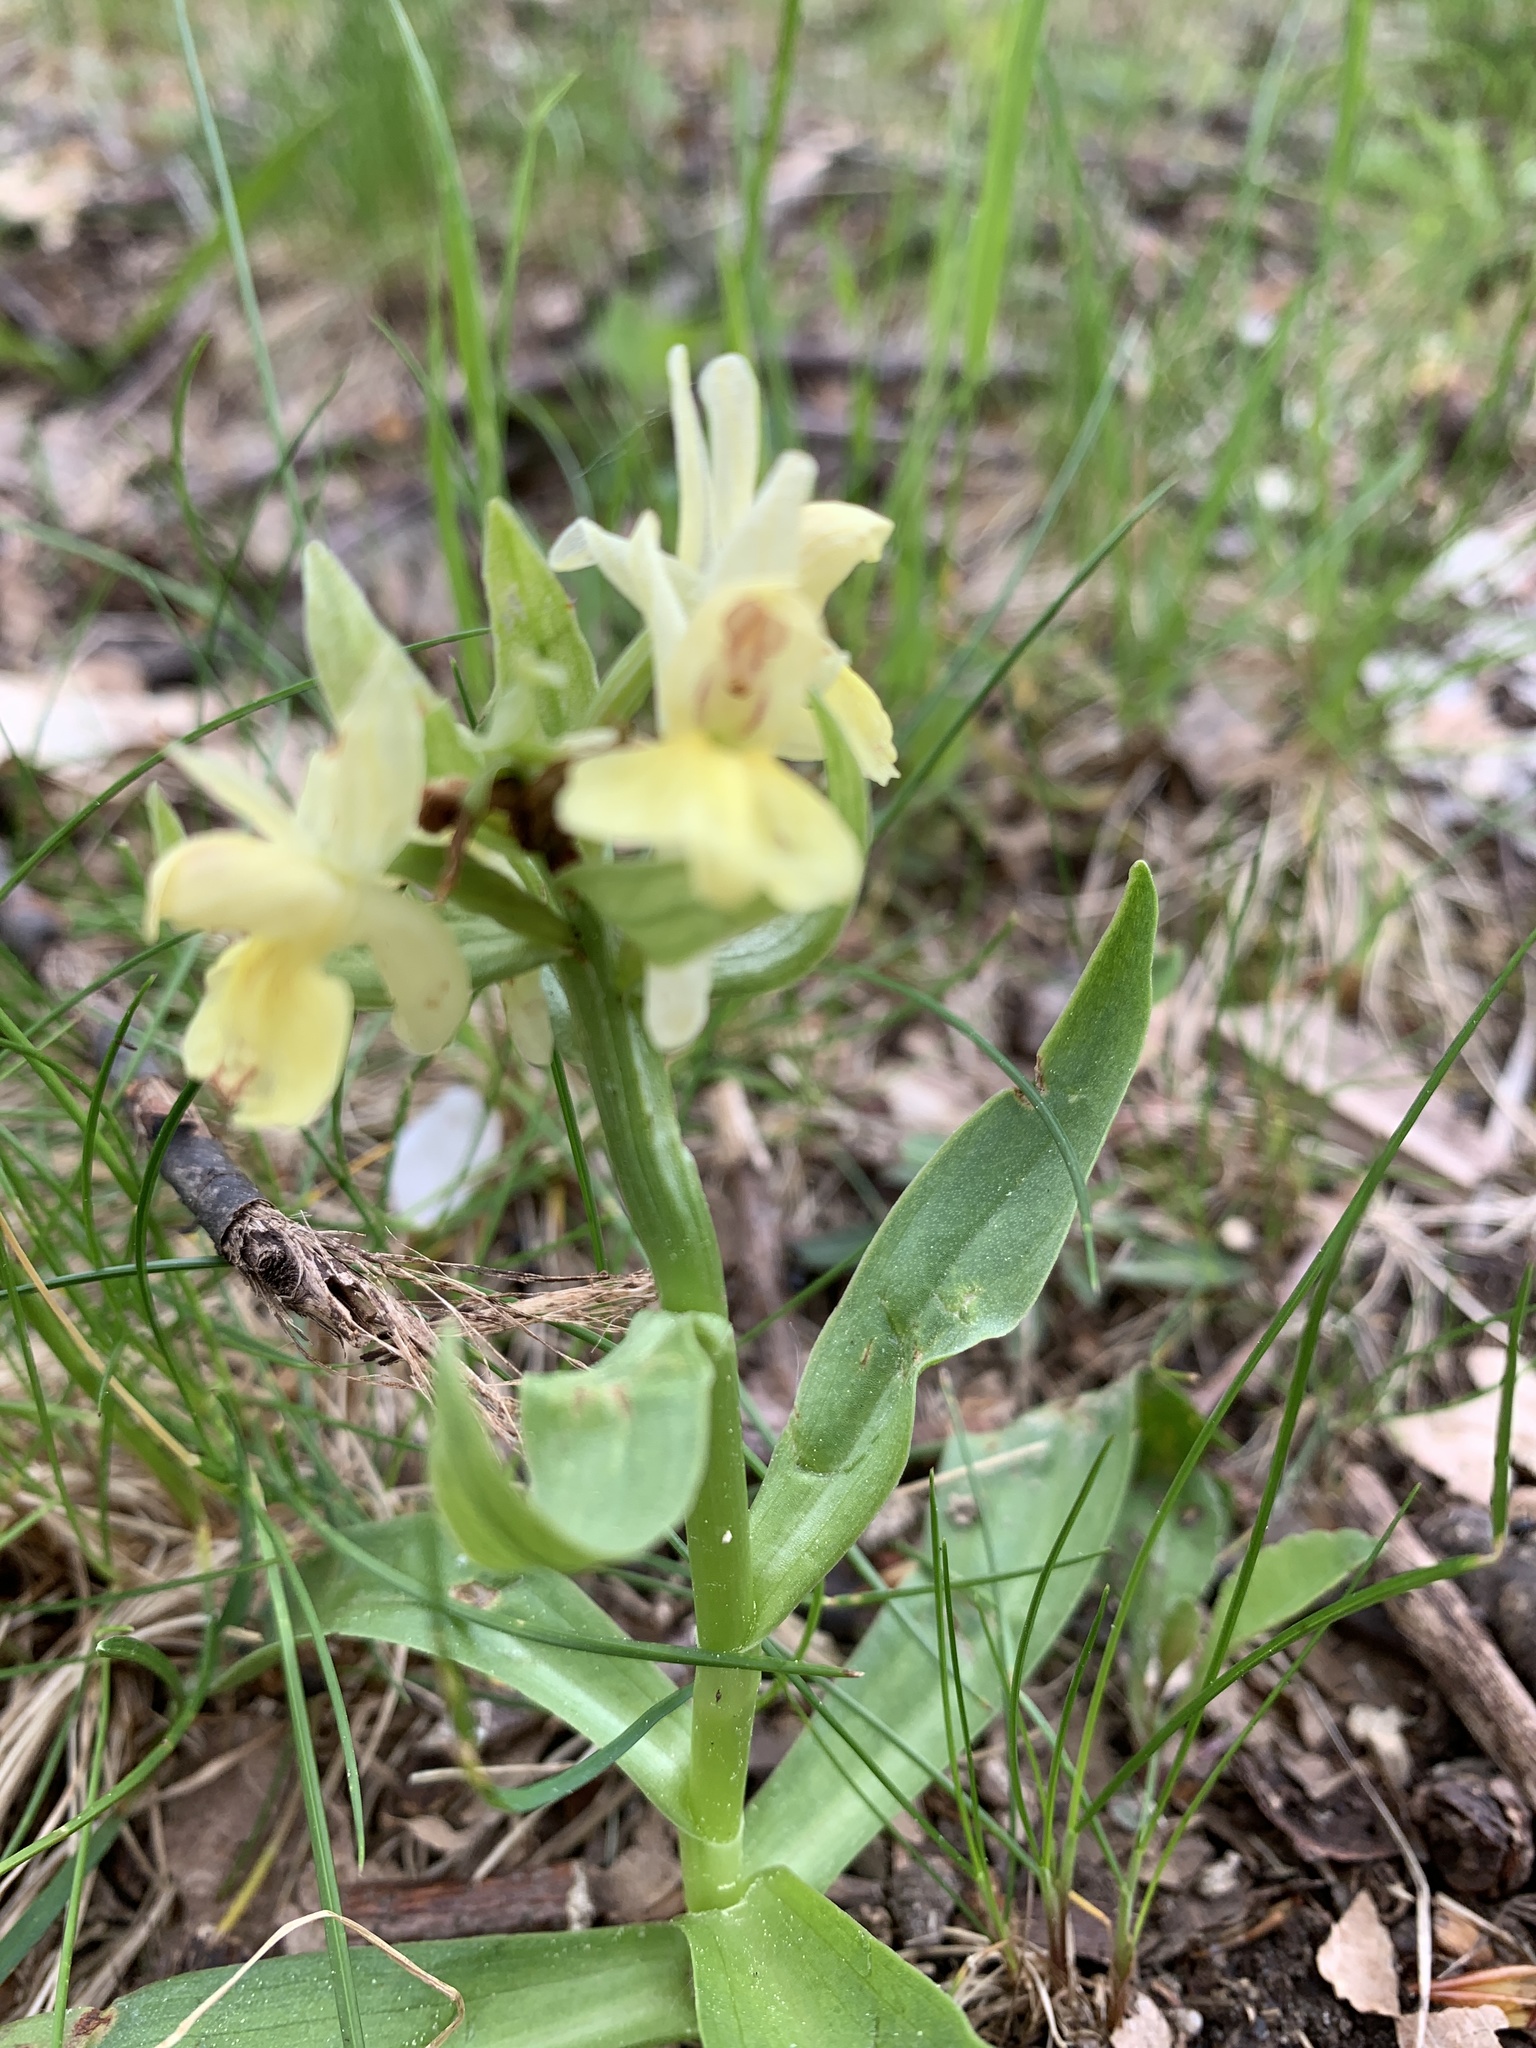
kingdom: Plantae
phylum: Tracheophyta
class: Liliopsida
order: Asparagales
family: Orchidaceae
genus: Dactylorhiza
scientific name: Dactylorhiza sambucina
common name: Elder-flowered orchid
